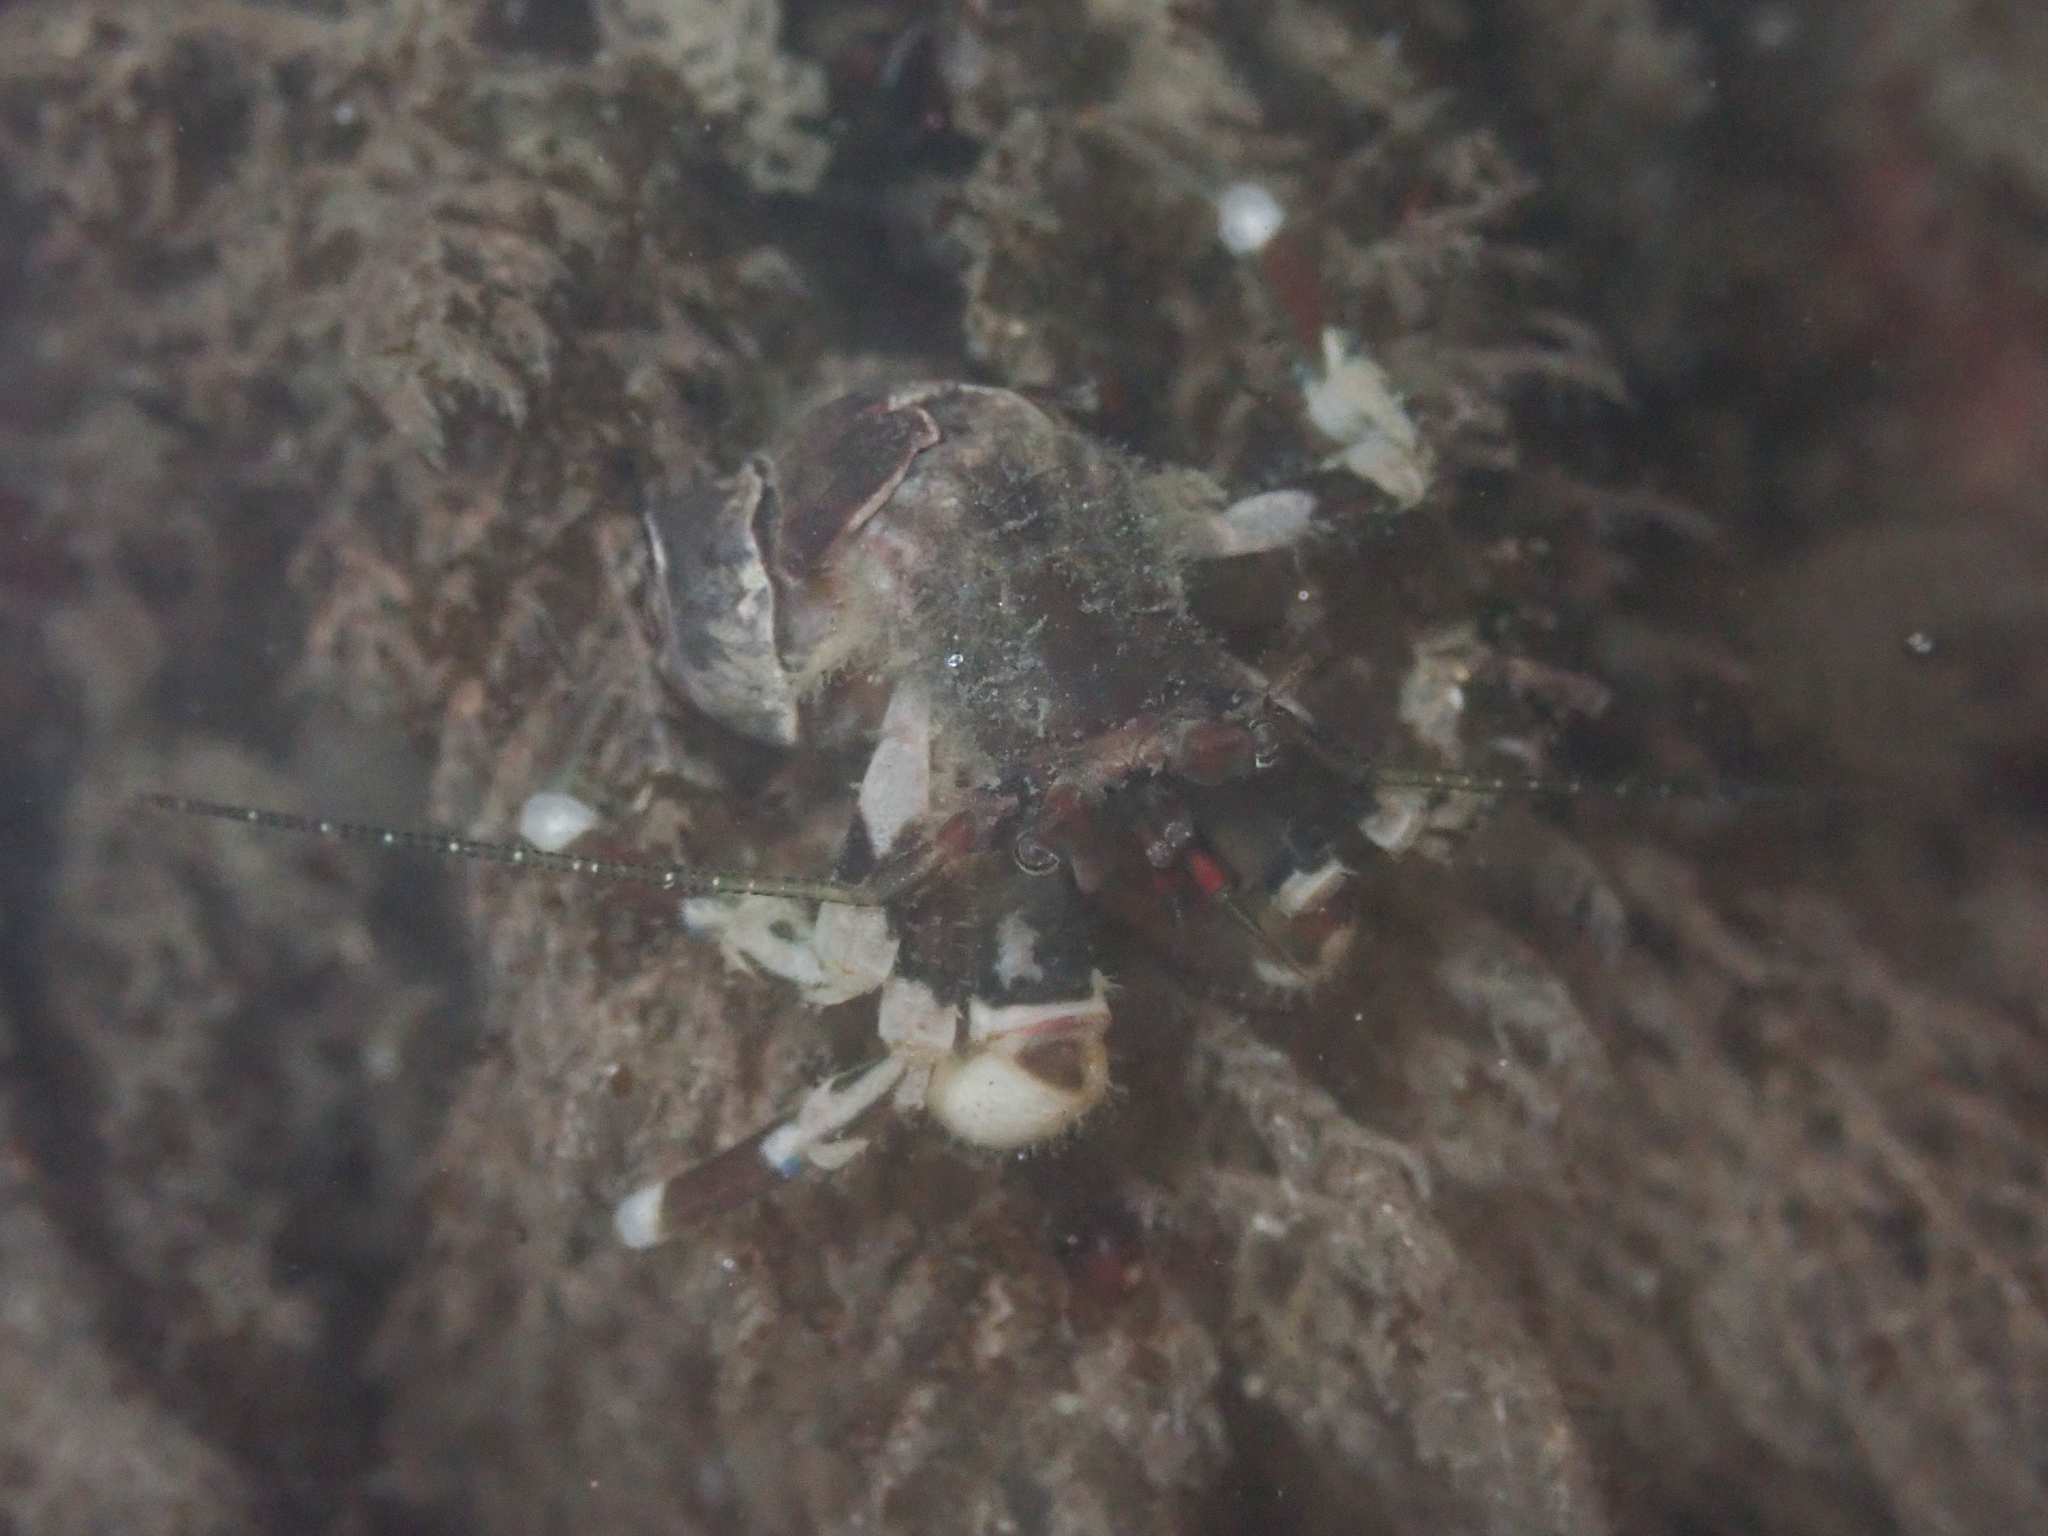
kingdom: Animalia
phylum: Arthropoda
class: Malacostraca
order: Decapoda
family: Paguridae
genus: Pagurus
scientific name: Pagurus hirsutiusculus
